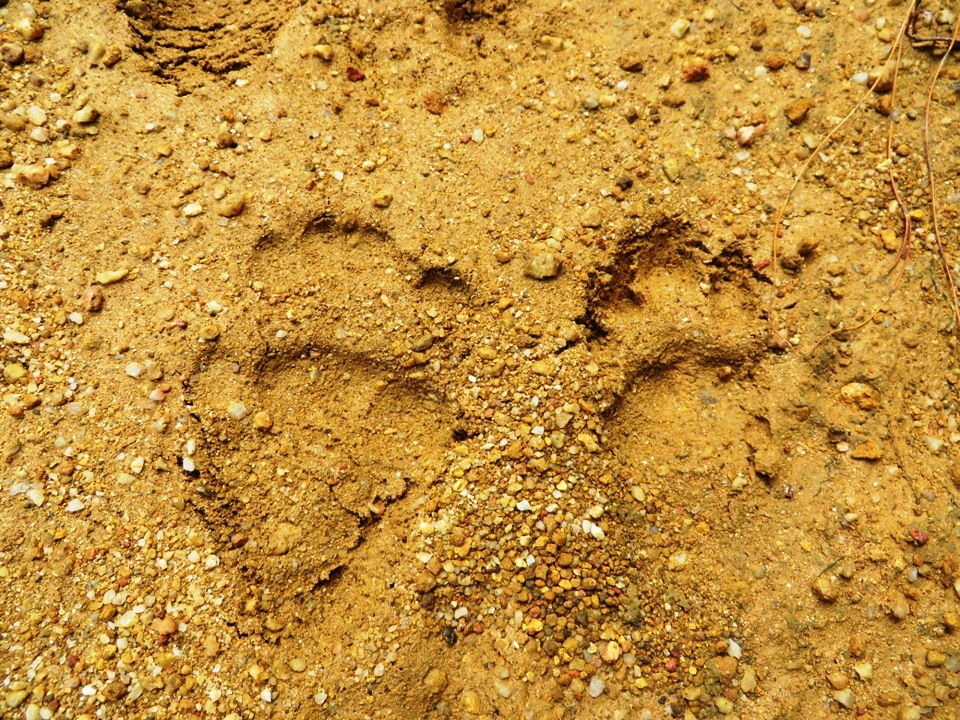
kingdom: Animalia
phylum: Chordata
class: Mammalia
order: Primates
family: Cercopithecidae
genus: Papio
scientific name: Papio ursinus
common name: Chacma baboon
